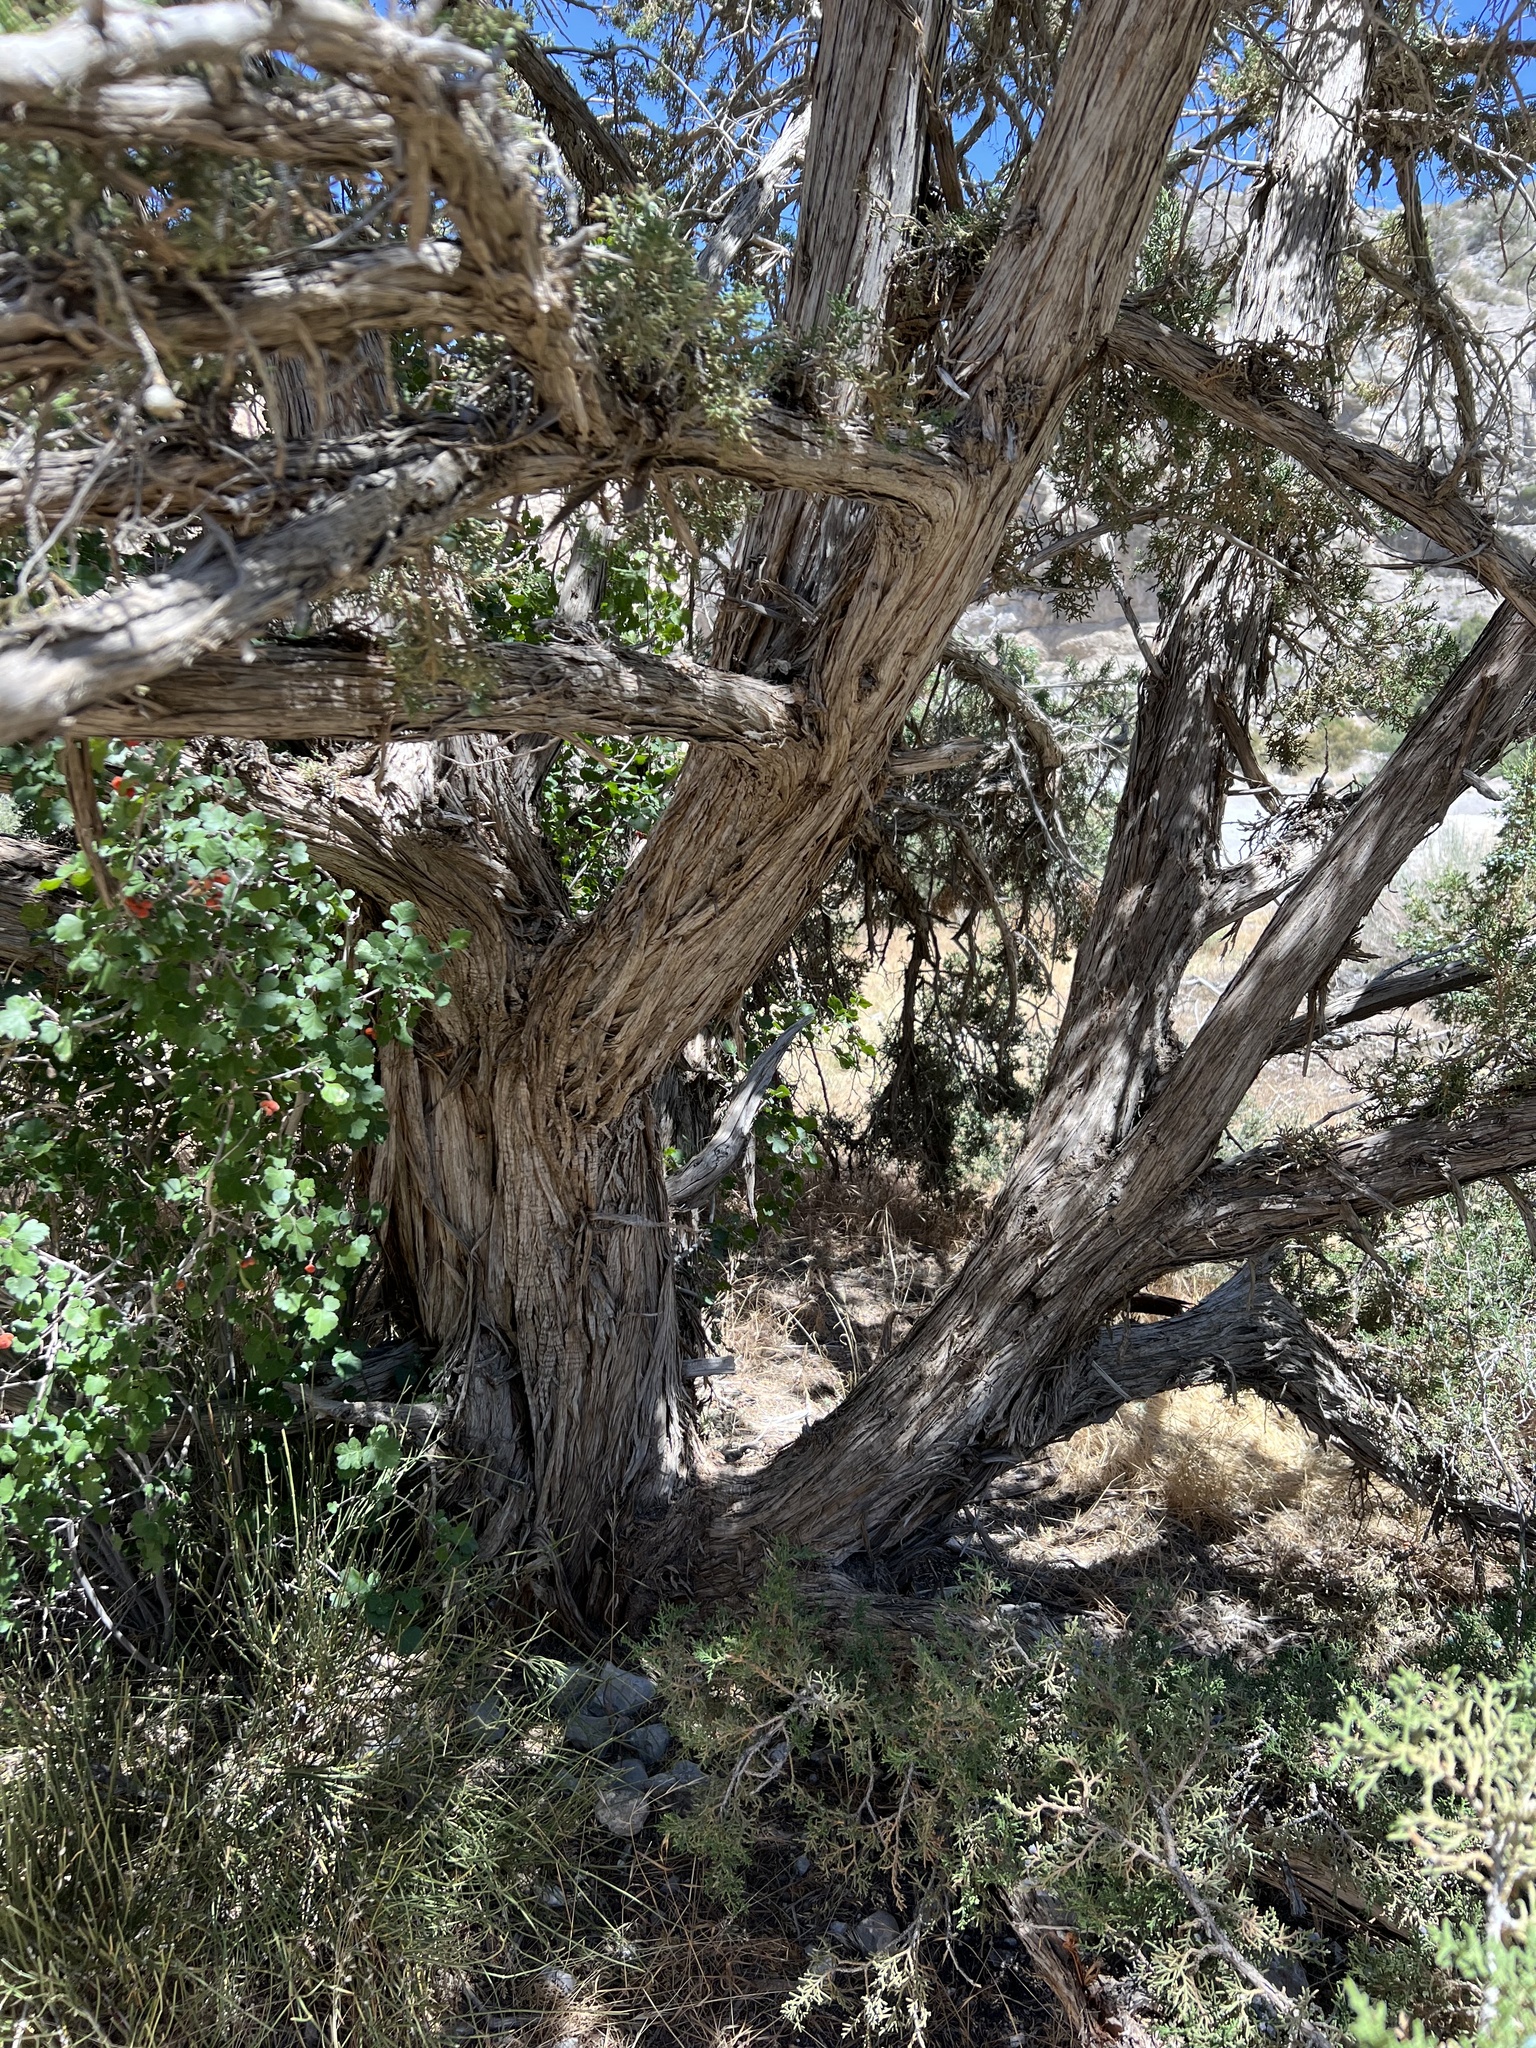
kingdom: Plantae
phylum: Tracheophyta
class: Pinopsida
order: Pinales
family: Cupressaceae
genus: Juniperus
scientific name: Juniperus osteosperma
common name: Utah juniper
